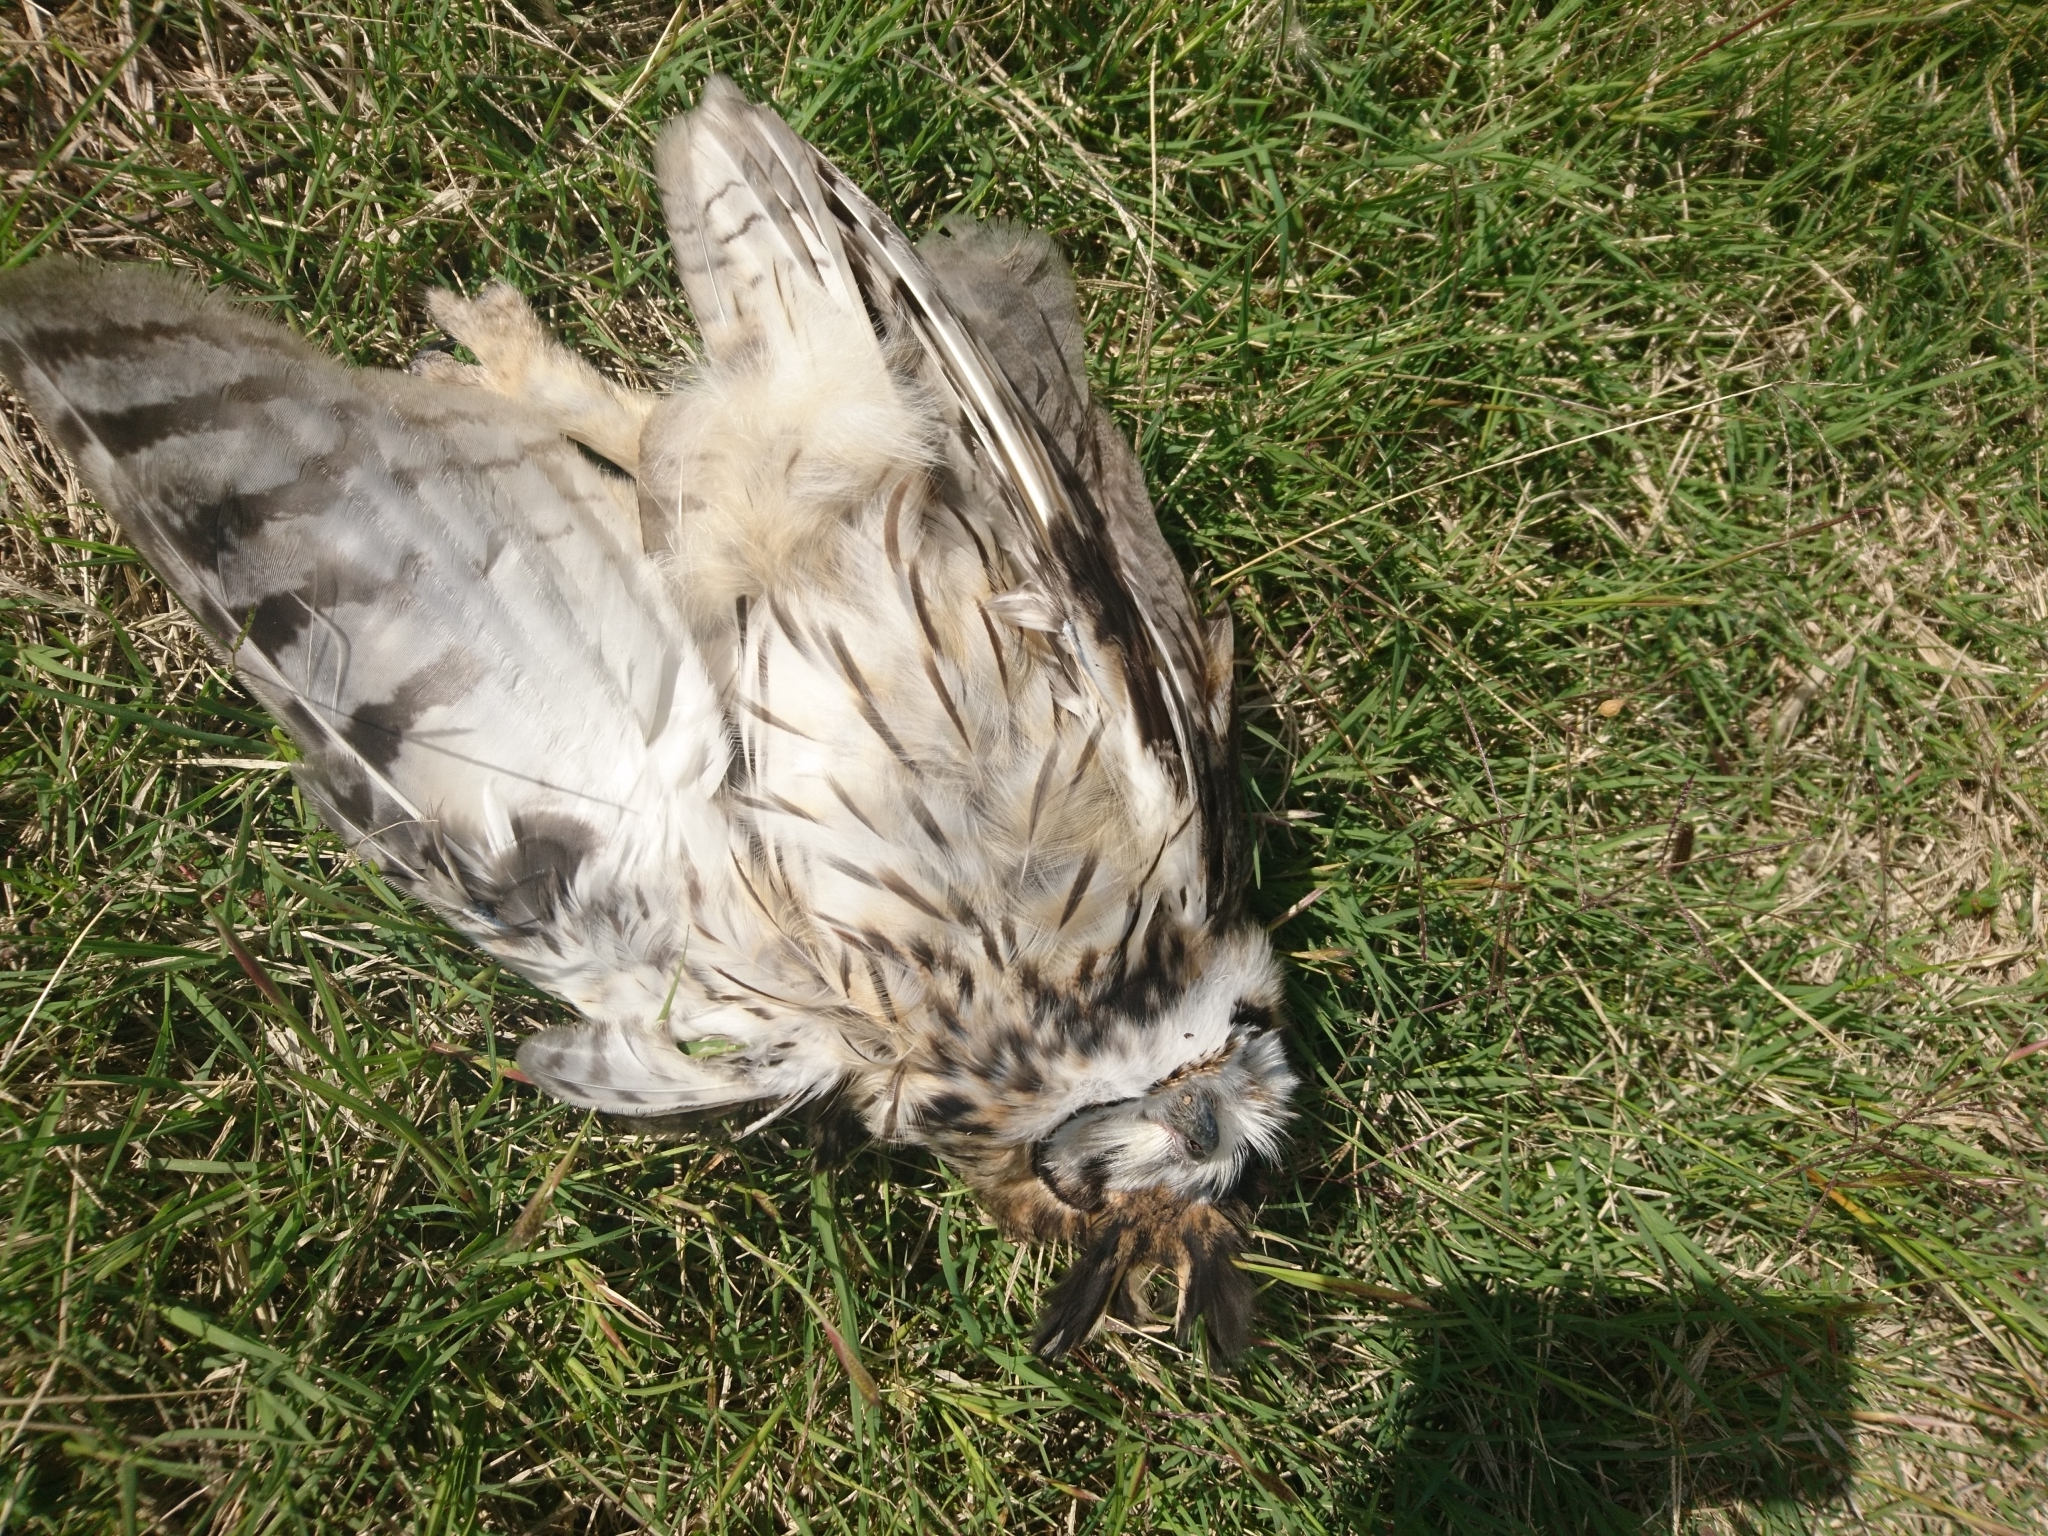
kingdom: Animalia
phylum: Chordata
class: Aves
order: Strigiformes
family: Strigidae
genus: Pseudoscops
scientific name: Pseudoscops clamator
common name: Striped owl
